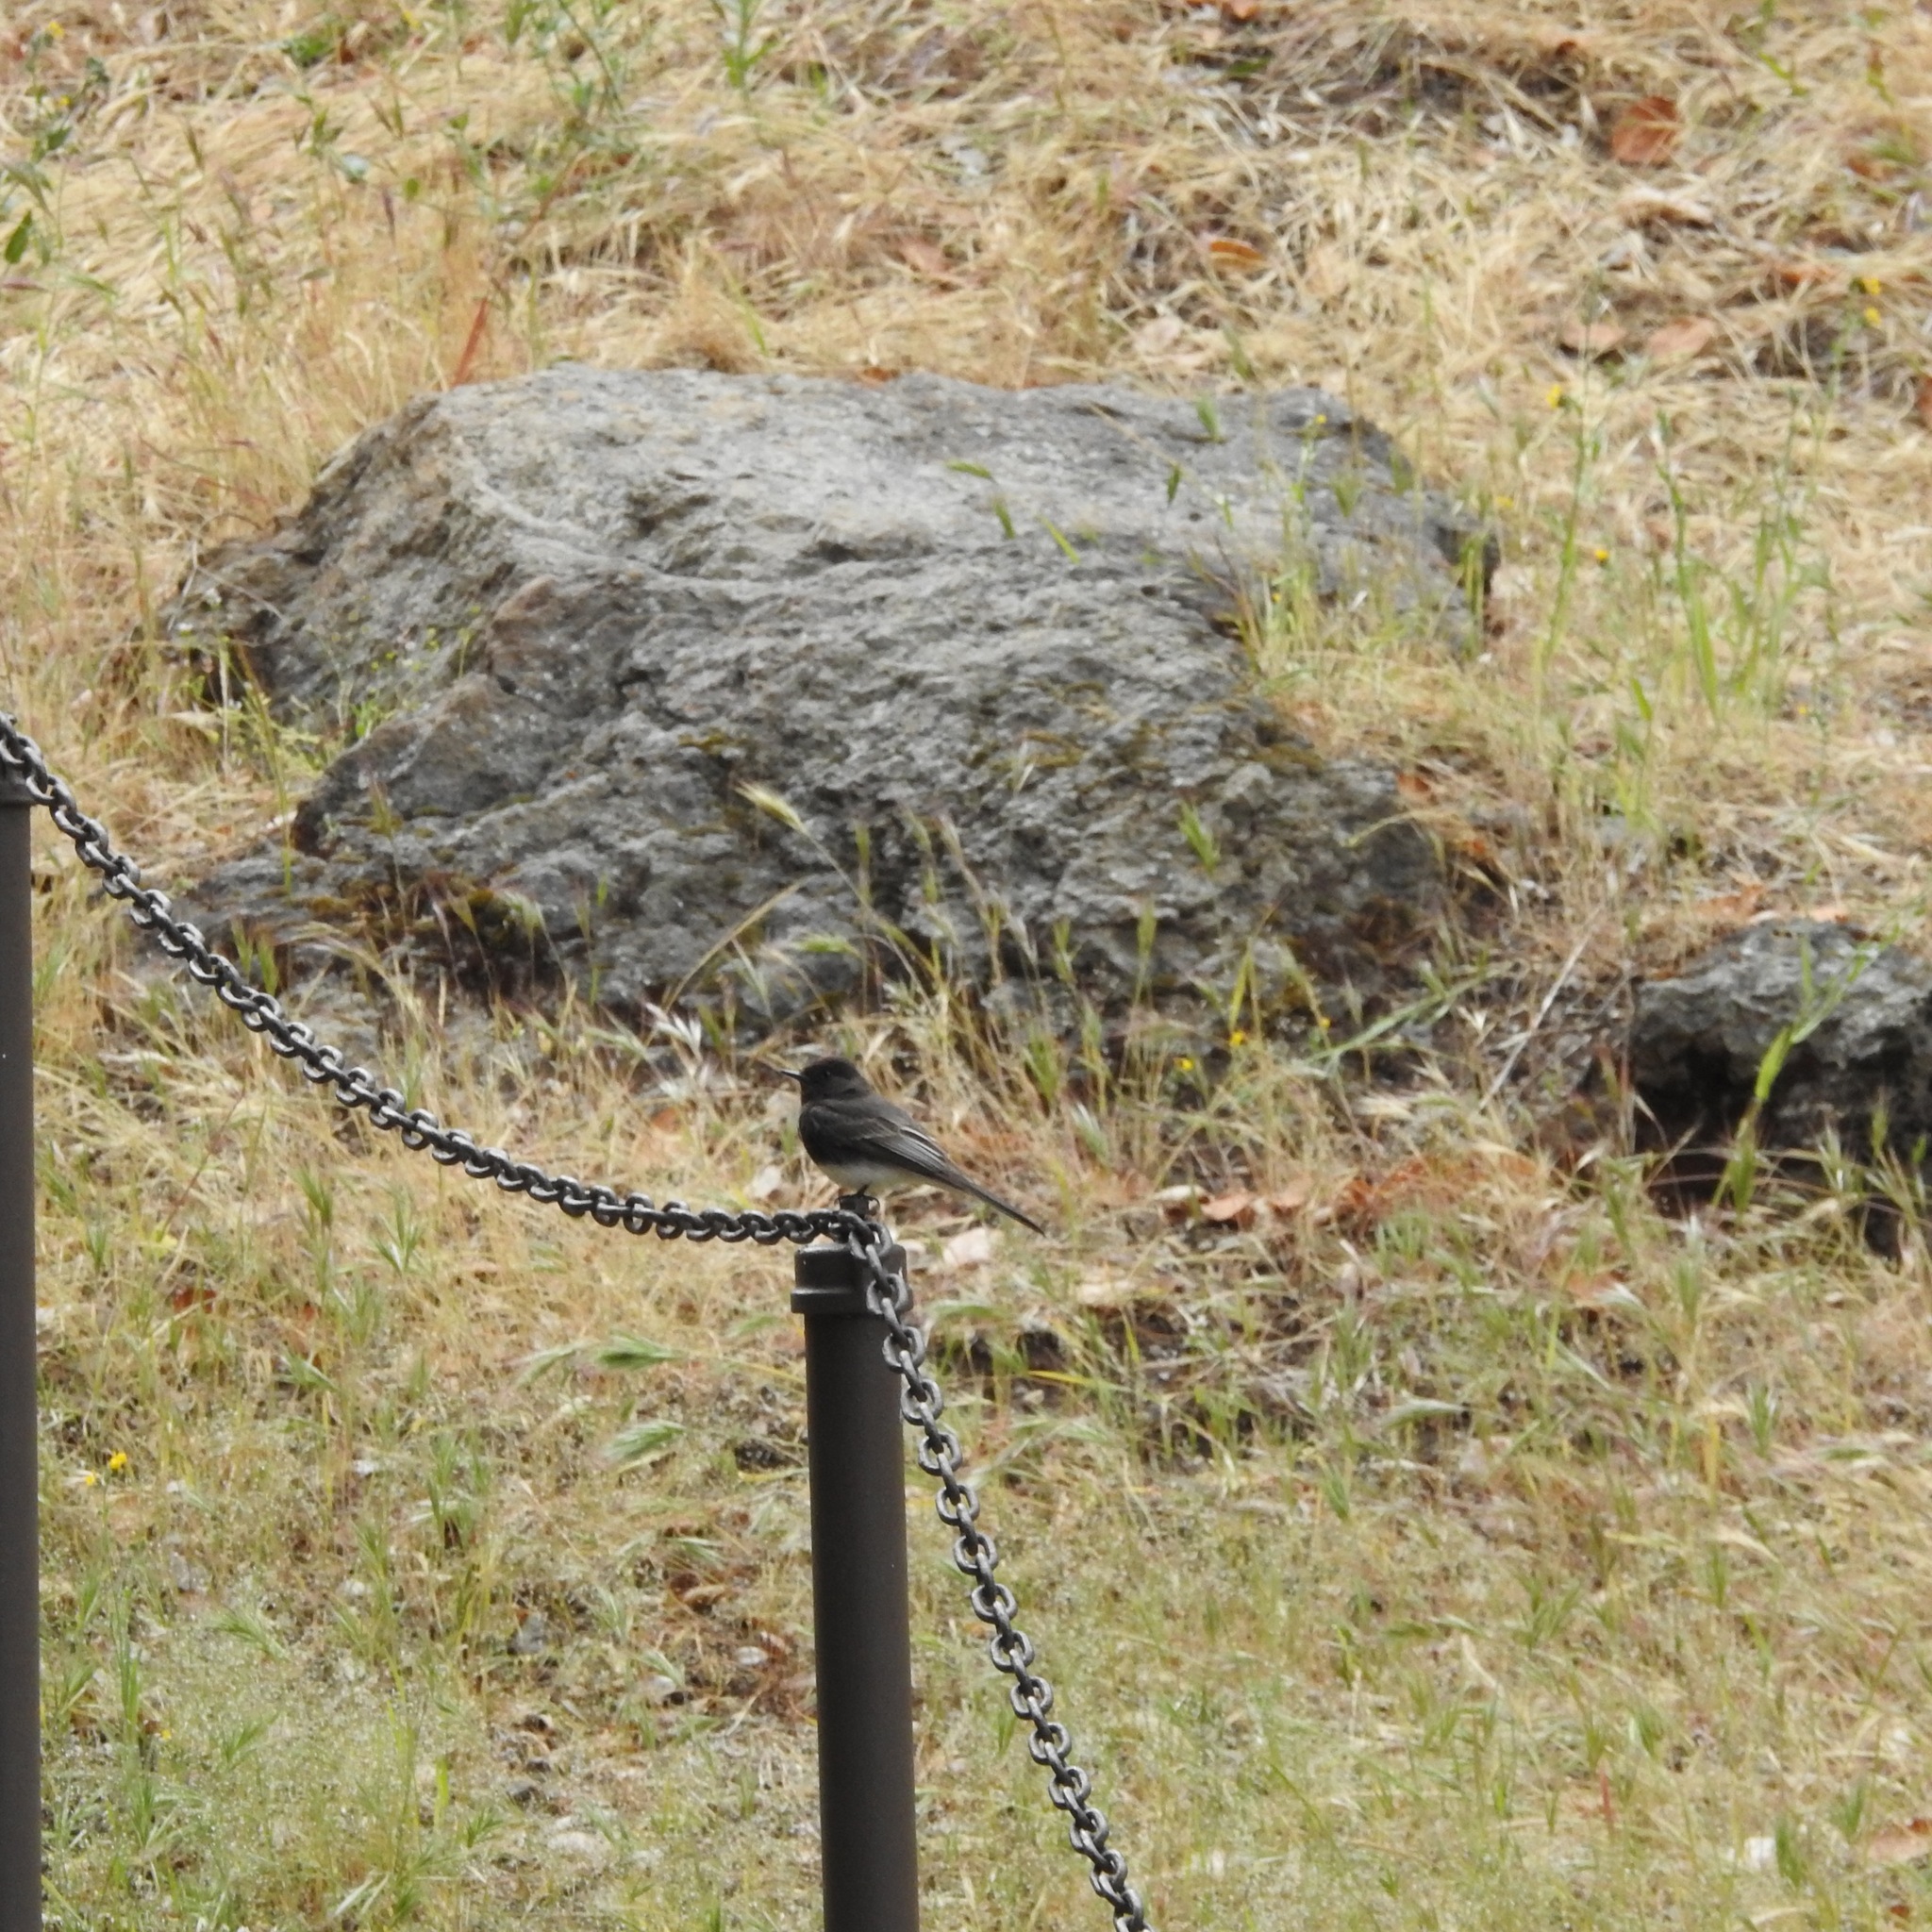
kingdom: Animalia
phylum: Chordata
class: Aves
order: Passeriformes
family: Tyrannidae
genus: Sayornis
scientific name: Sayornis nigricans
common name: Black phoebe
